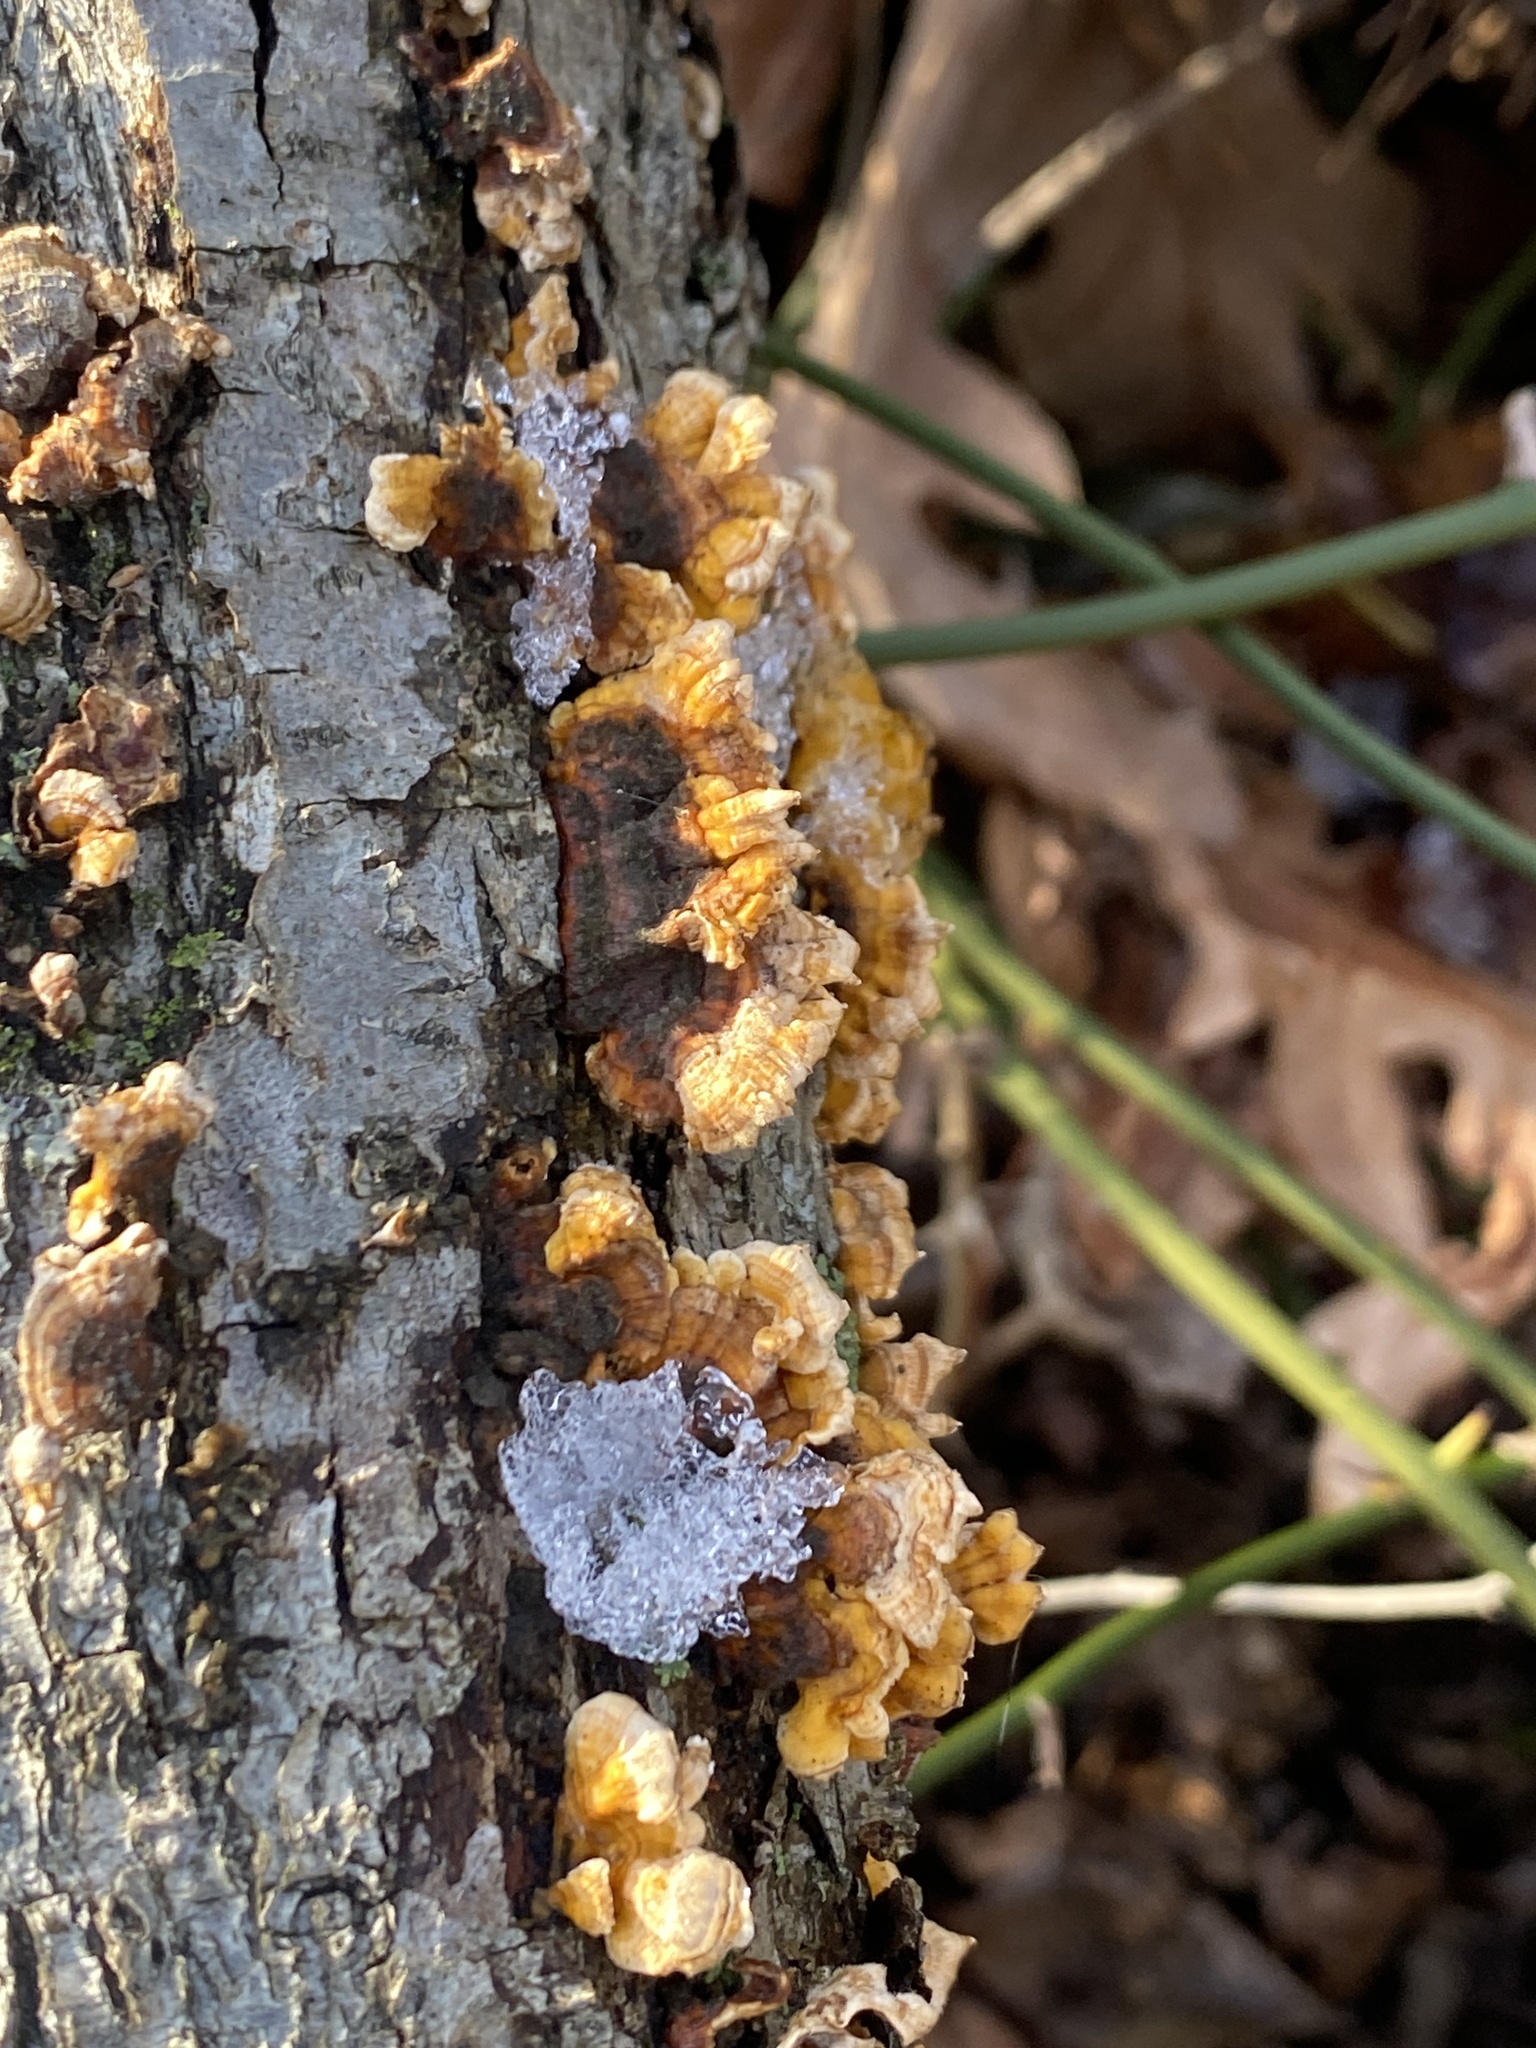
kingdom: Fungi
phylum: Basidiomycota
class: Agaricomycetes
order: Russulales
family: Stereaceae
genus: Stereum
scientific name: Stereum complicatum
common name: Crowded parchment
